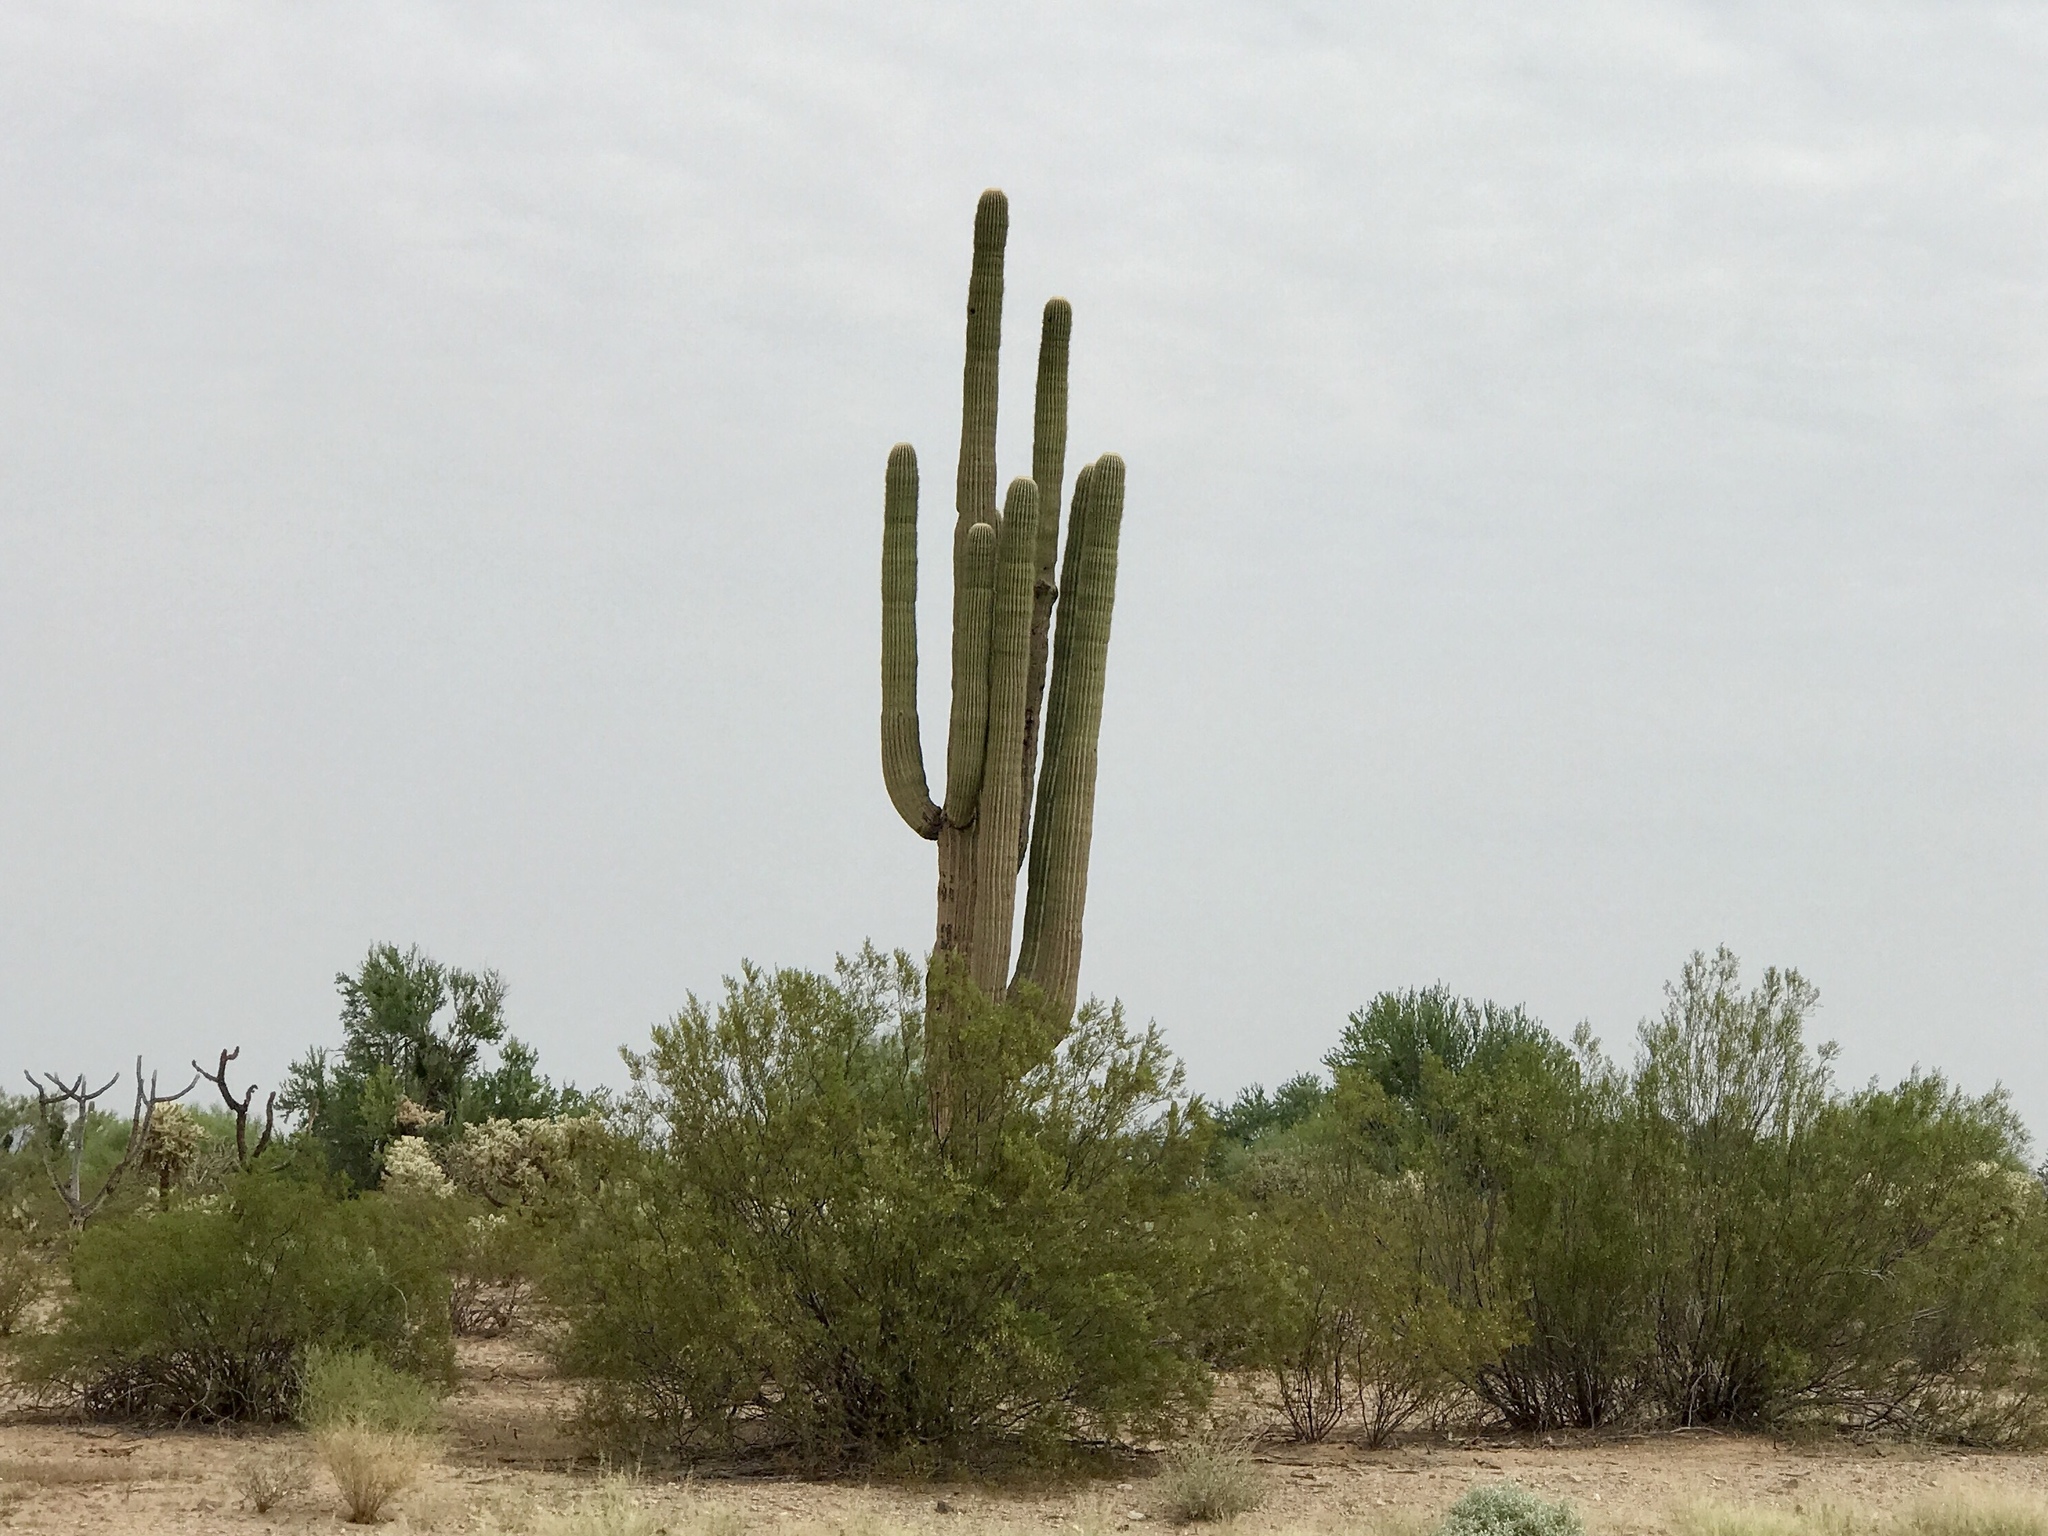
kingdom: Plantae
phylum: Tracheophyta
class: Magnoliopsida
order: Caryophyllales
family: Cactaceae
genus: Carnegiea
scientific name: Carnegiea gigantea
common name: Saguaro
